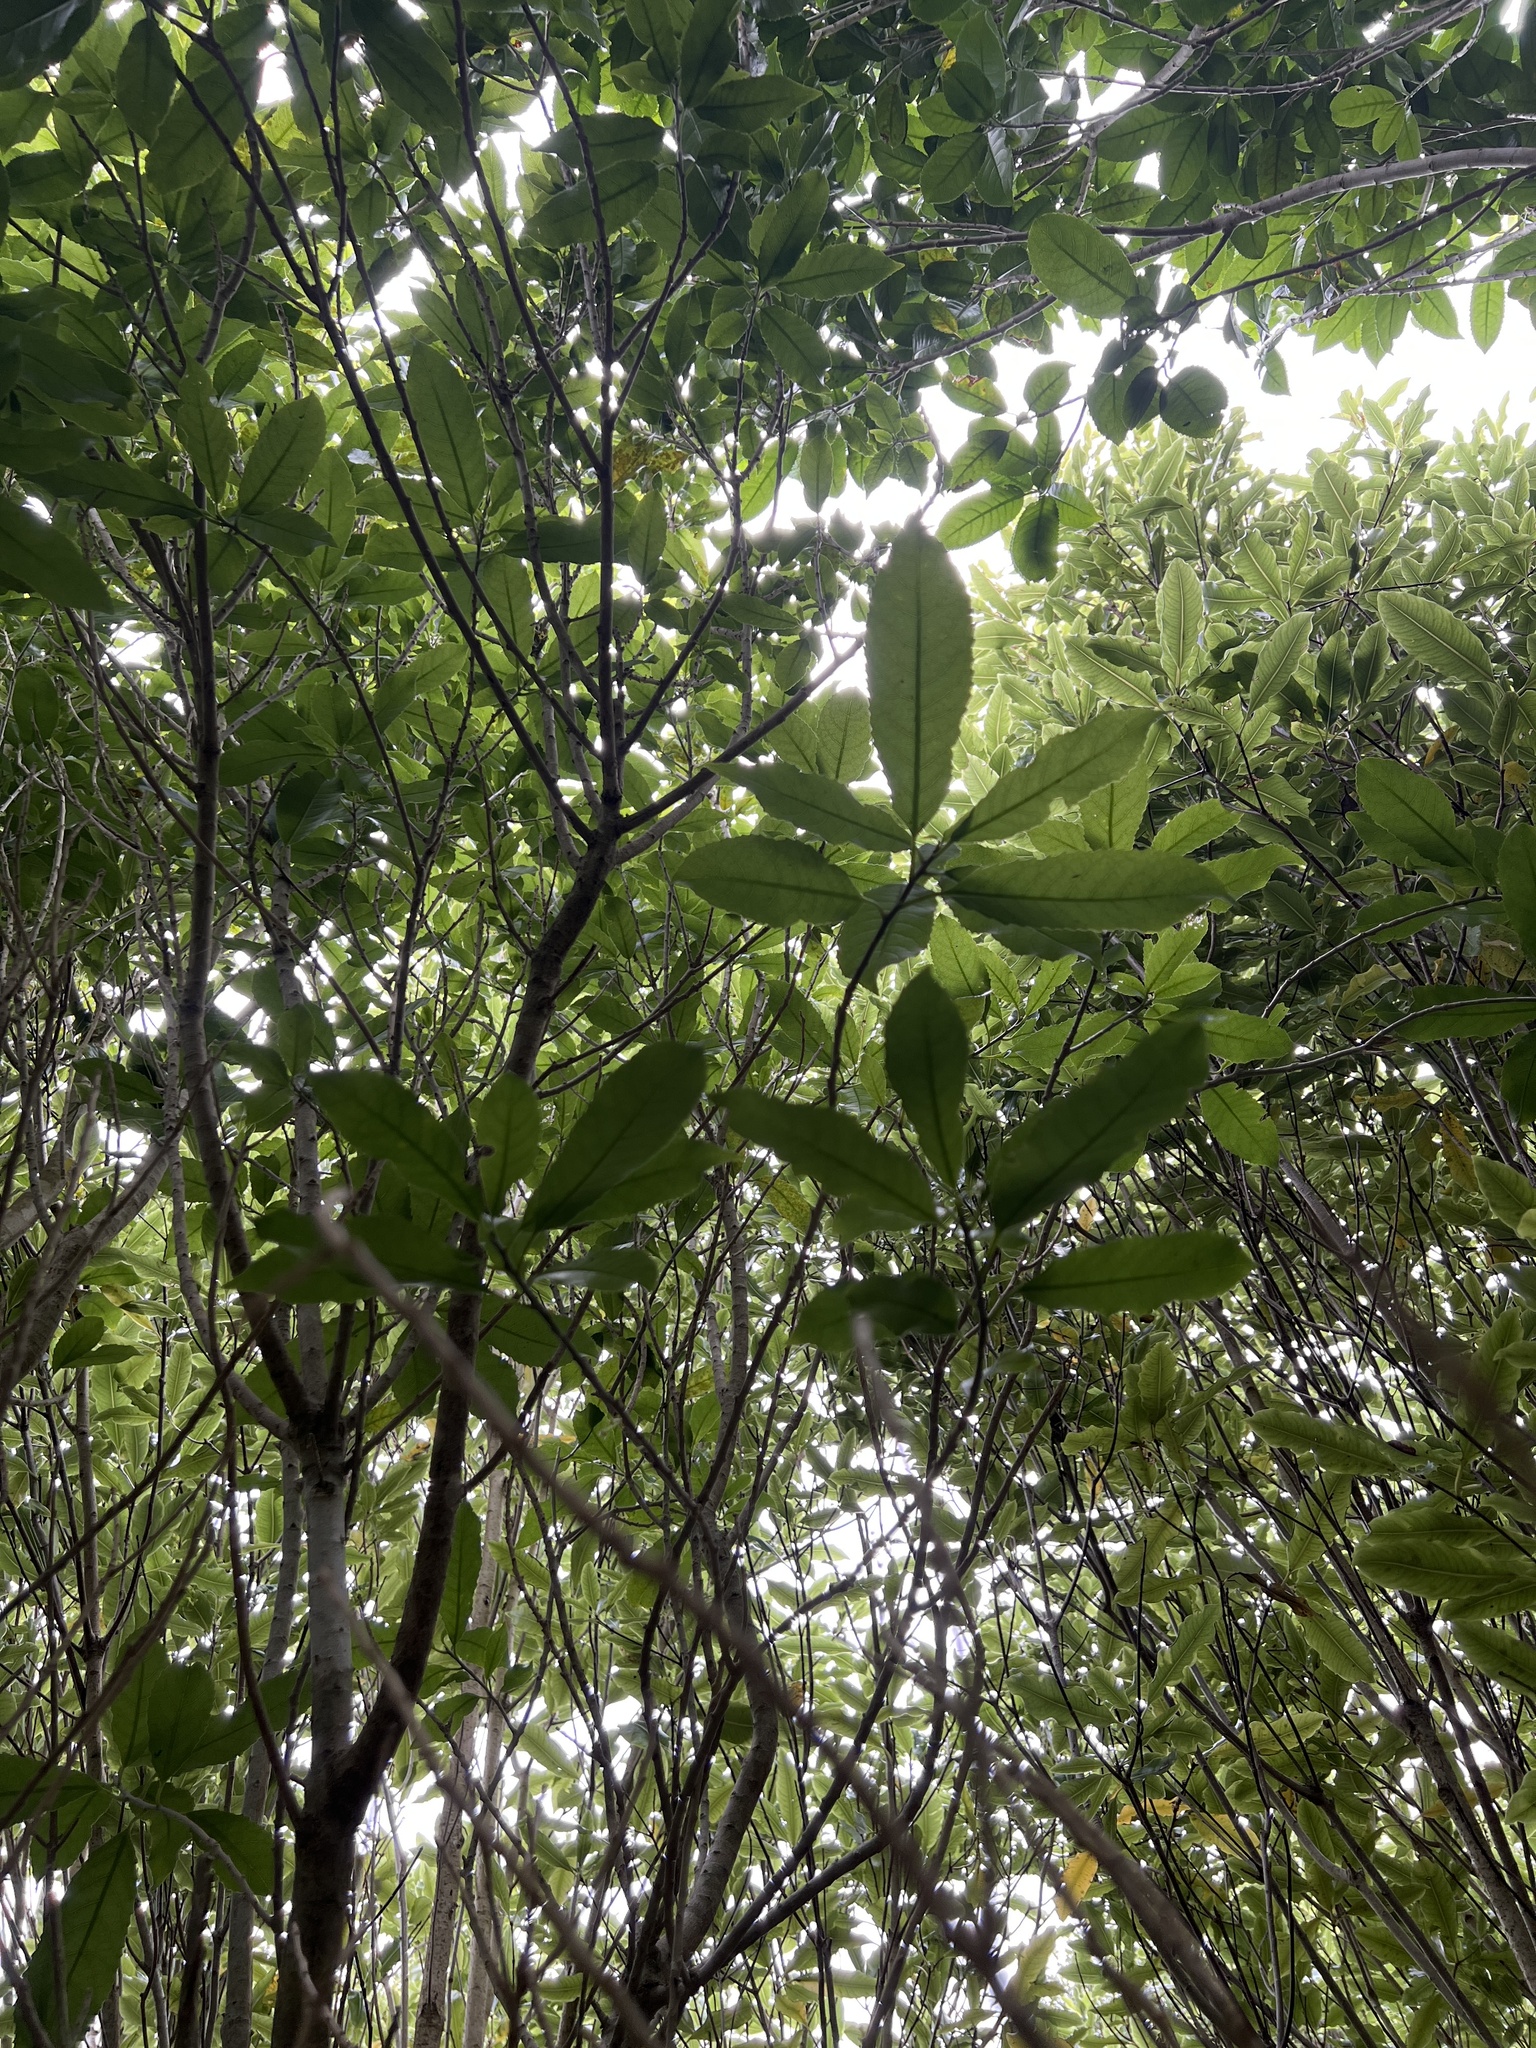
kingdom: Plantae
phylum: Tracheophyta
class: Magnoliopsida
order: Malpighiales
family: Violaceae
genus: Melicytus
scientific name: Melicytus ramiflorus
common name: Mahoe
